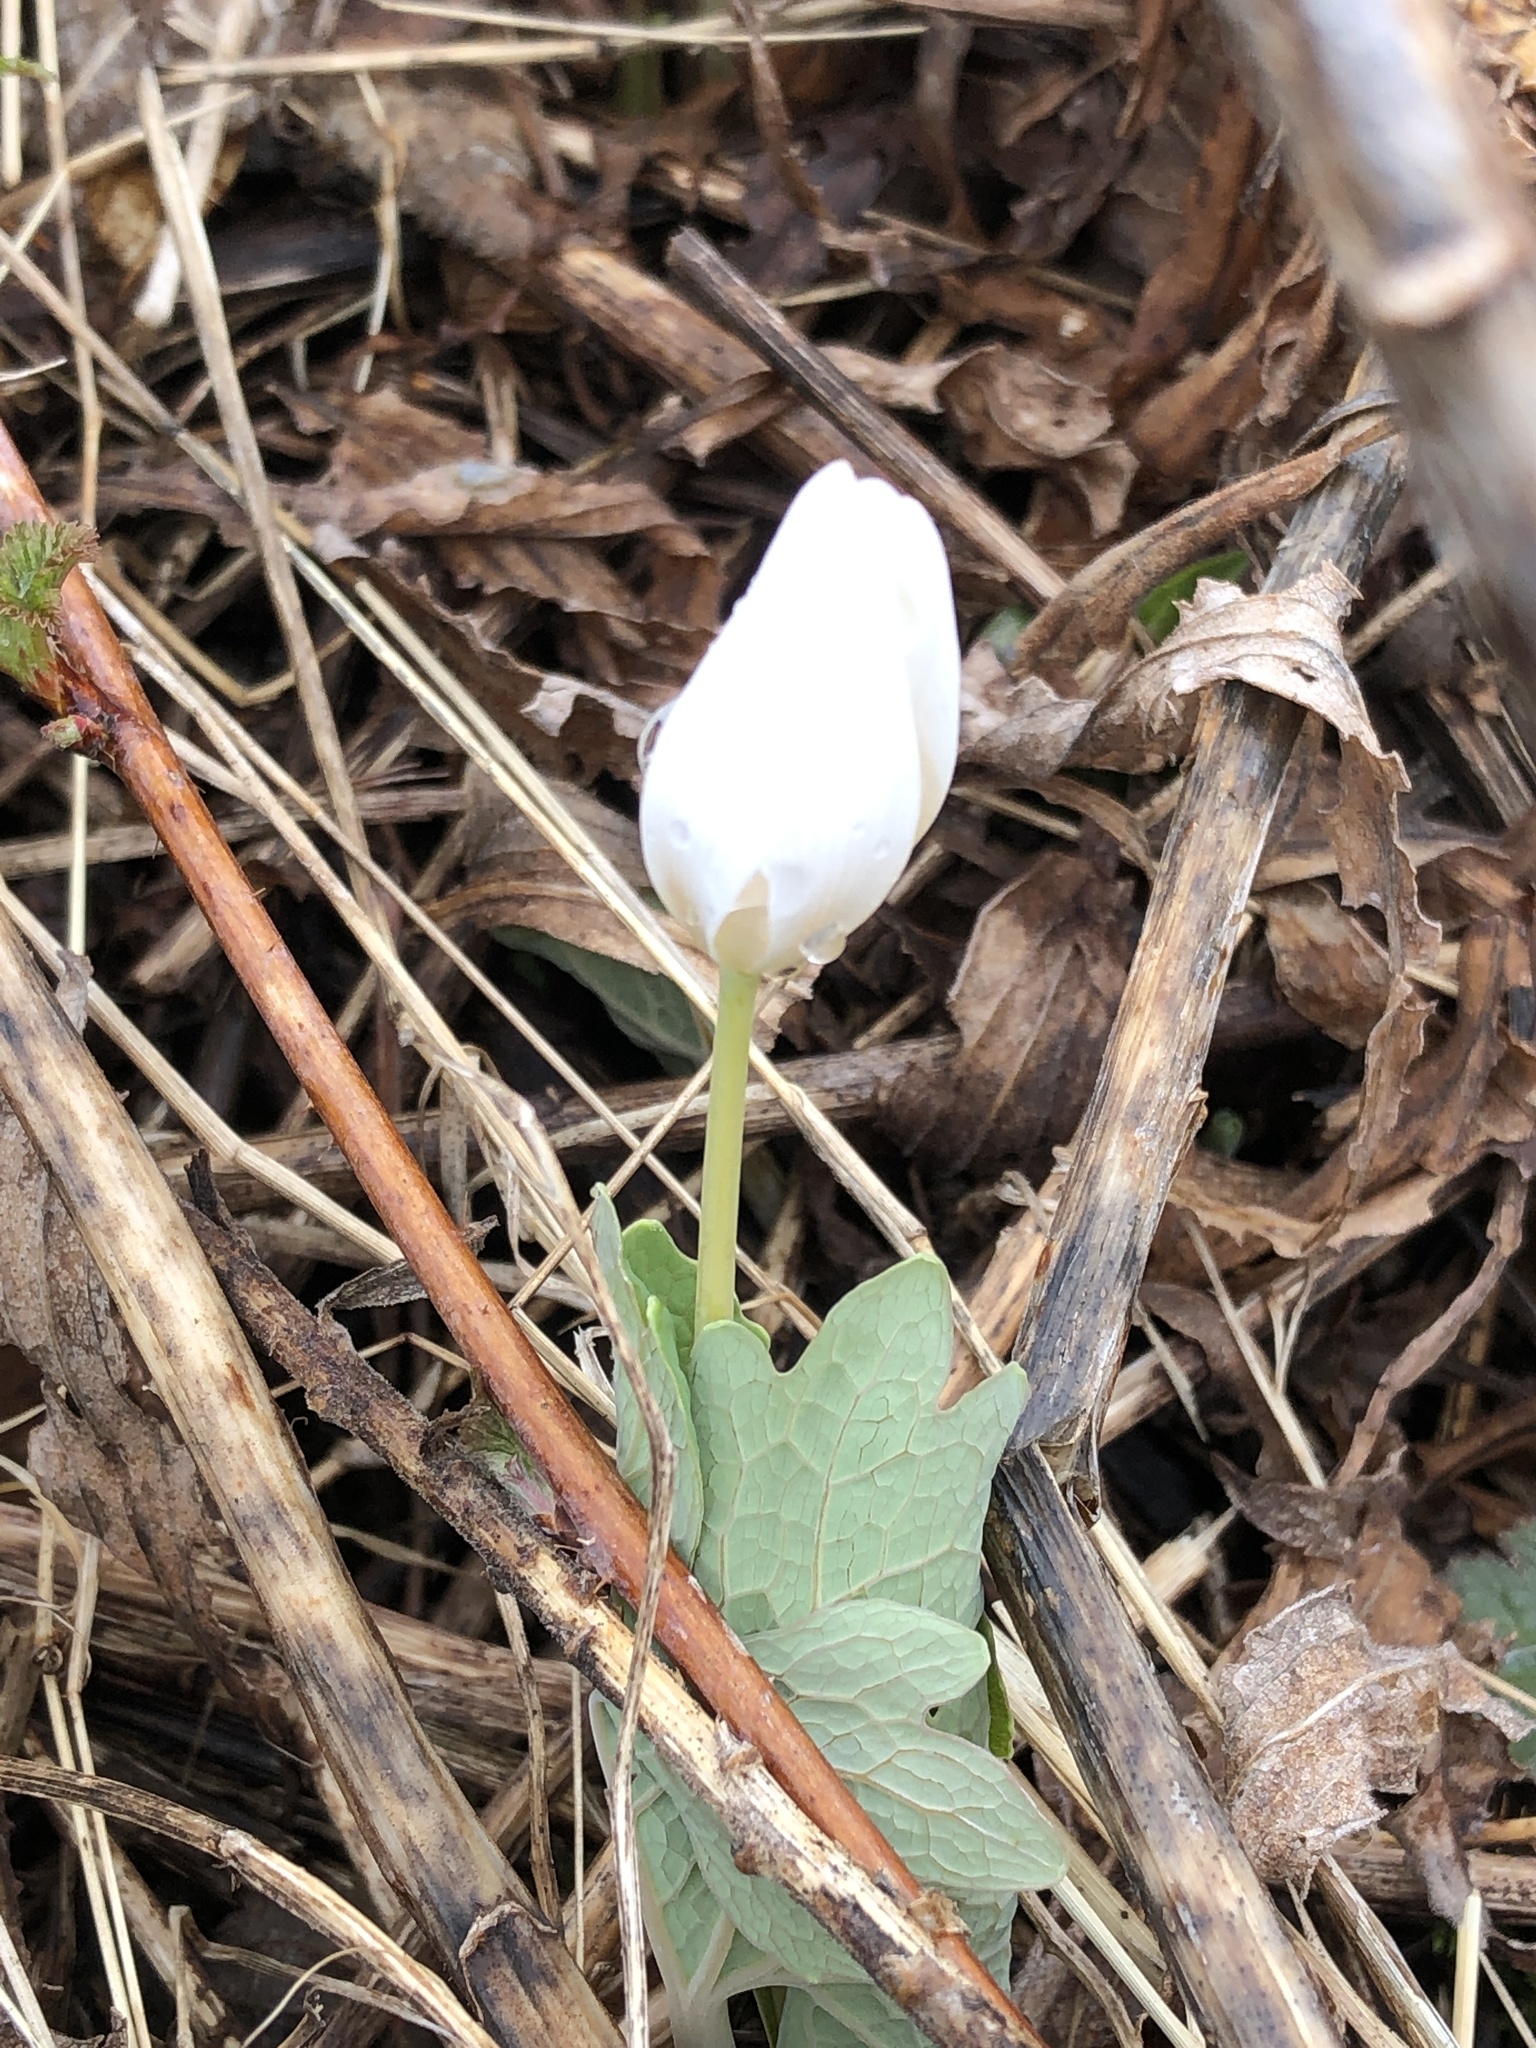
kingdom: Plantae
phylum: Tracheophyta
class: Magnoliopsida
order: Ranunculales
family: Papaveraceae
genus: Sanguinaria
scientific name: Sanguinaria canadensis
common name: Bloodroot
